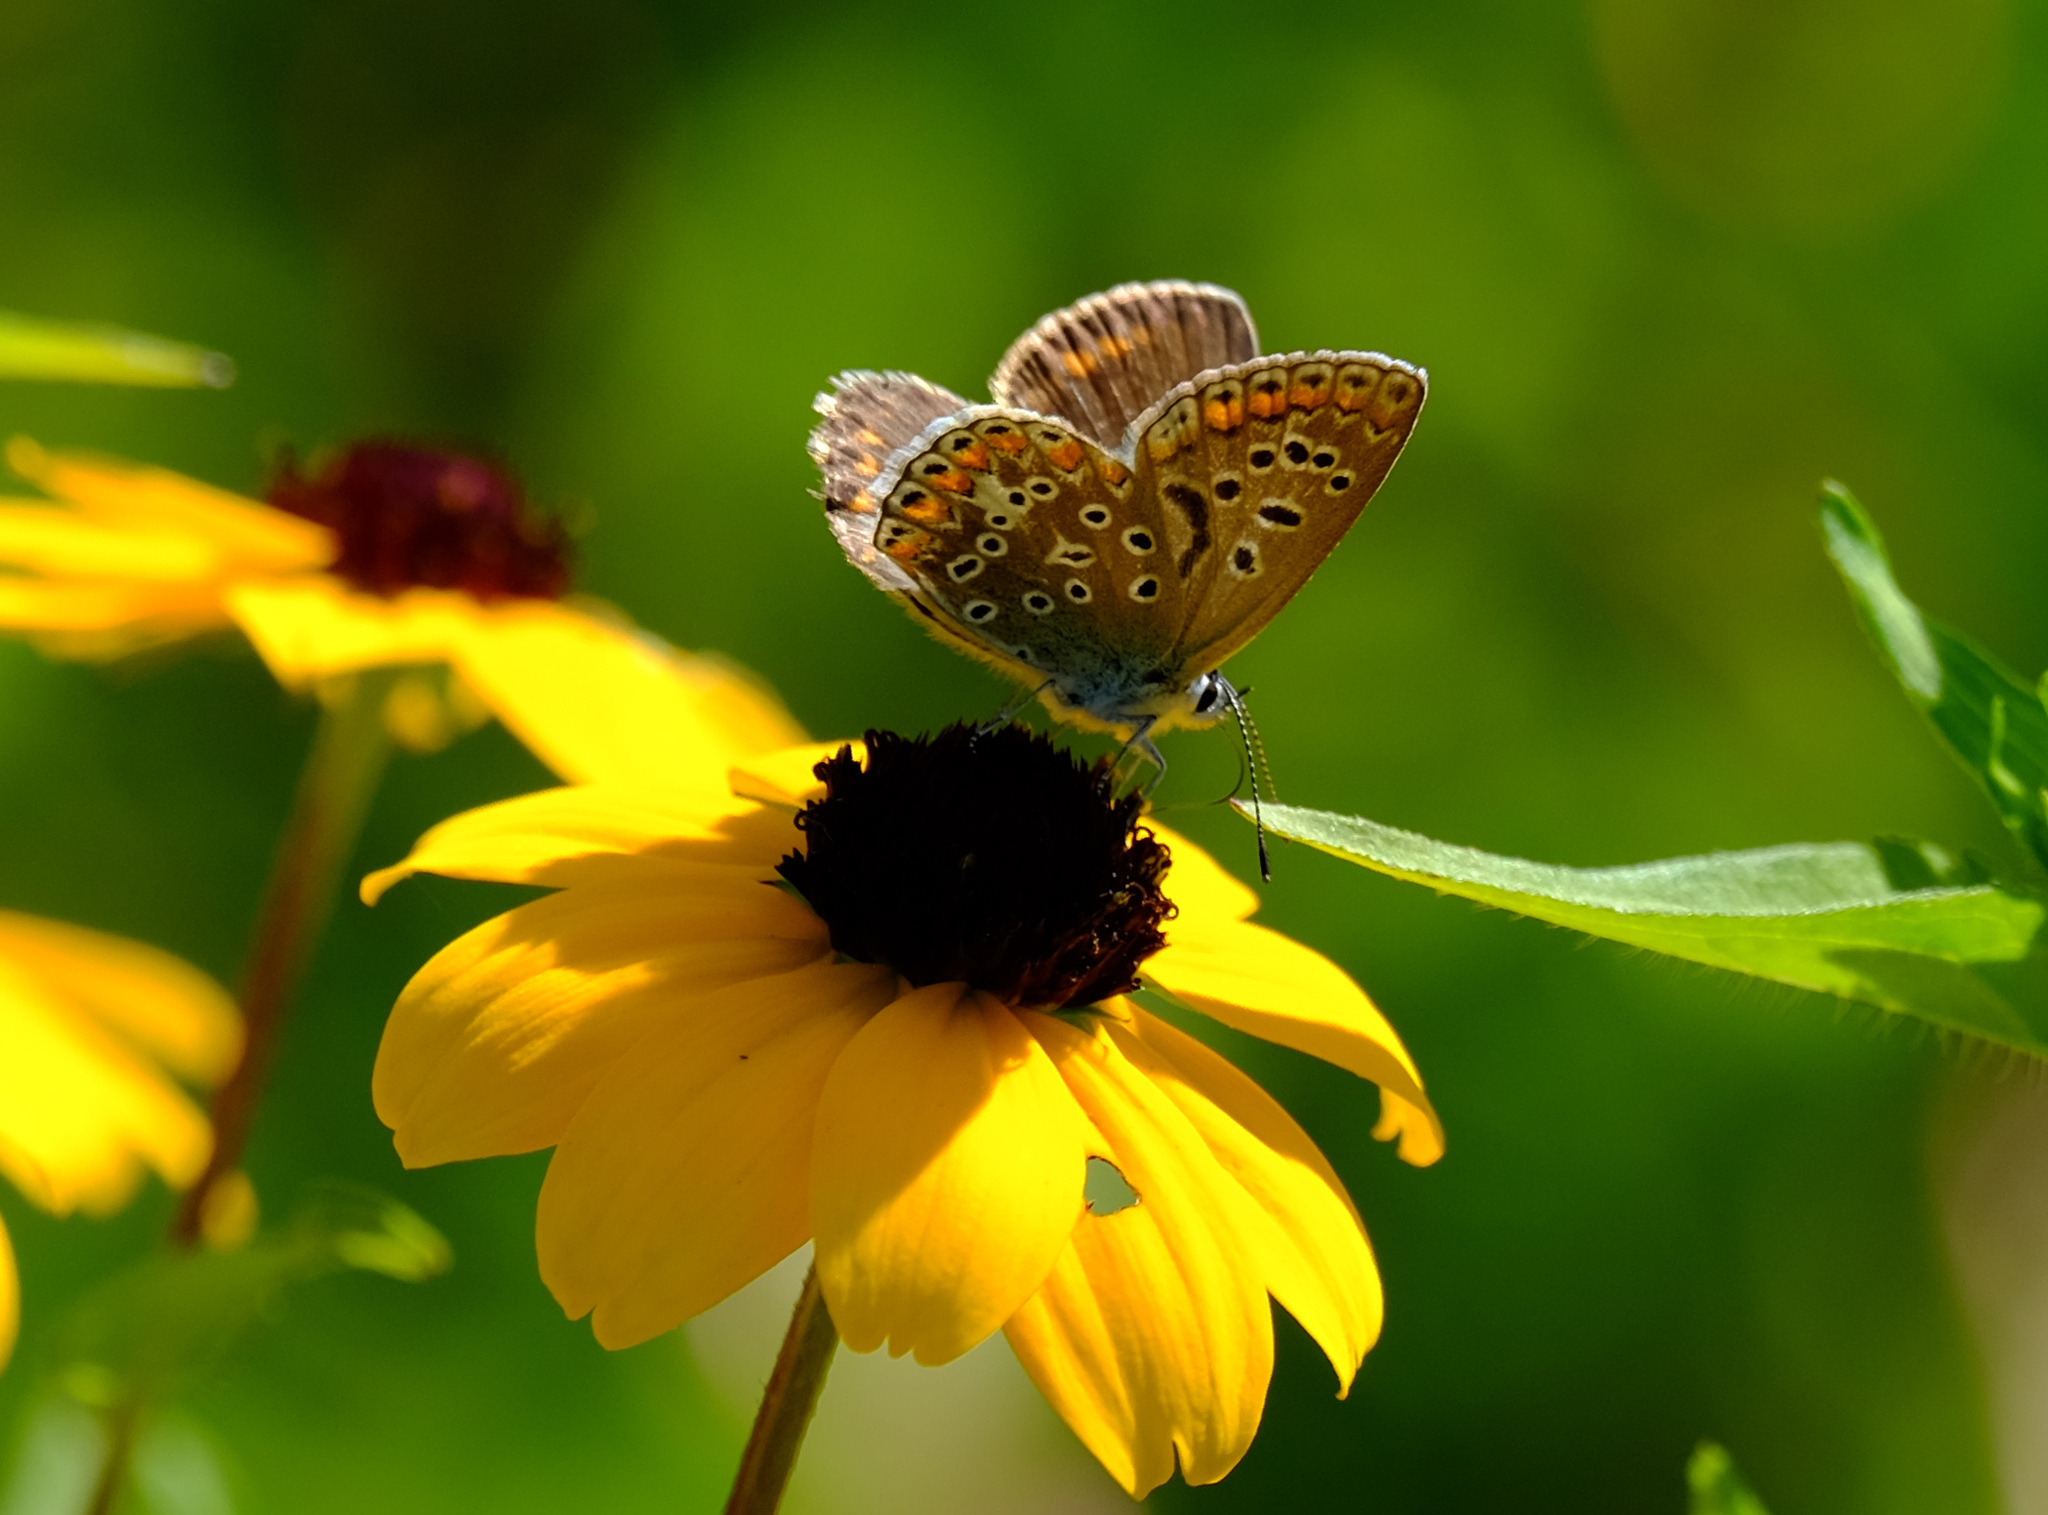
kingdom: Animalia
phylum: Arthropoda
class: Insecta
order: Lepidoptera
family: Lycaenidae
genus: Polyommatus
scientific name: Polyommatus icarus
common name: Common blue
